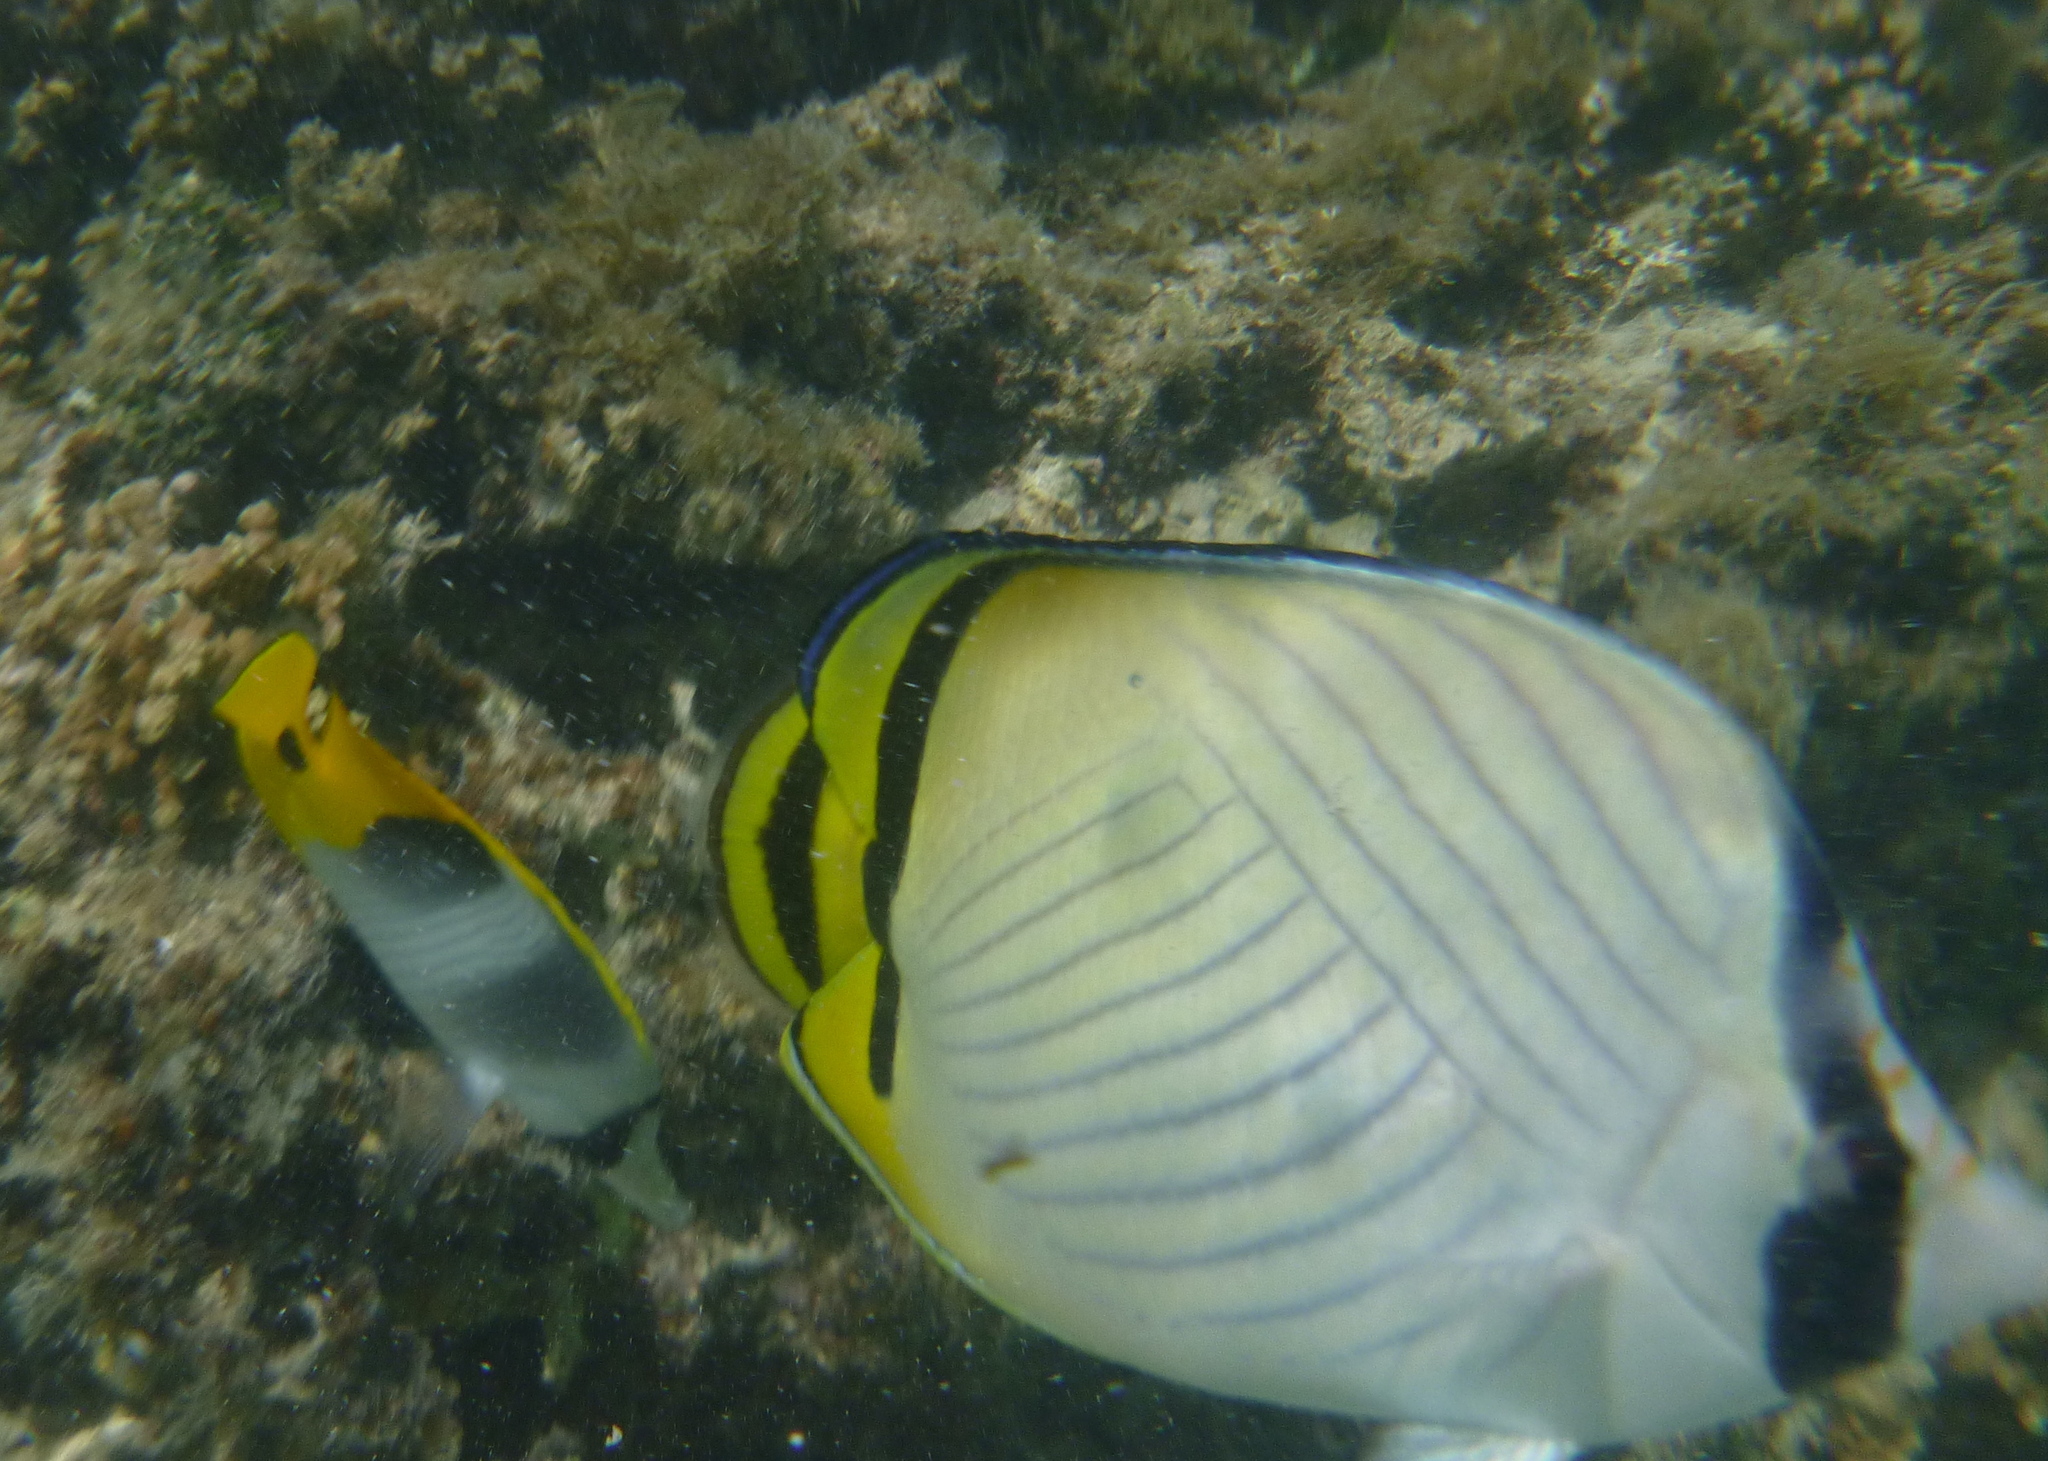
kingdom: Animalia
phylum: Chordata
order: Perciformes
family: Chaetodontidae
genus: Chaetodon
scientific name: Chaetodon vagabundus
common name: Vagabond butterflyfish
